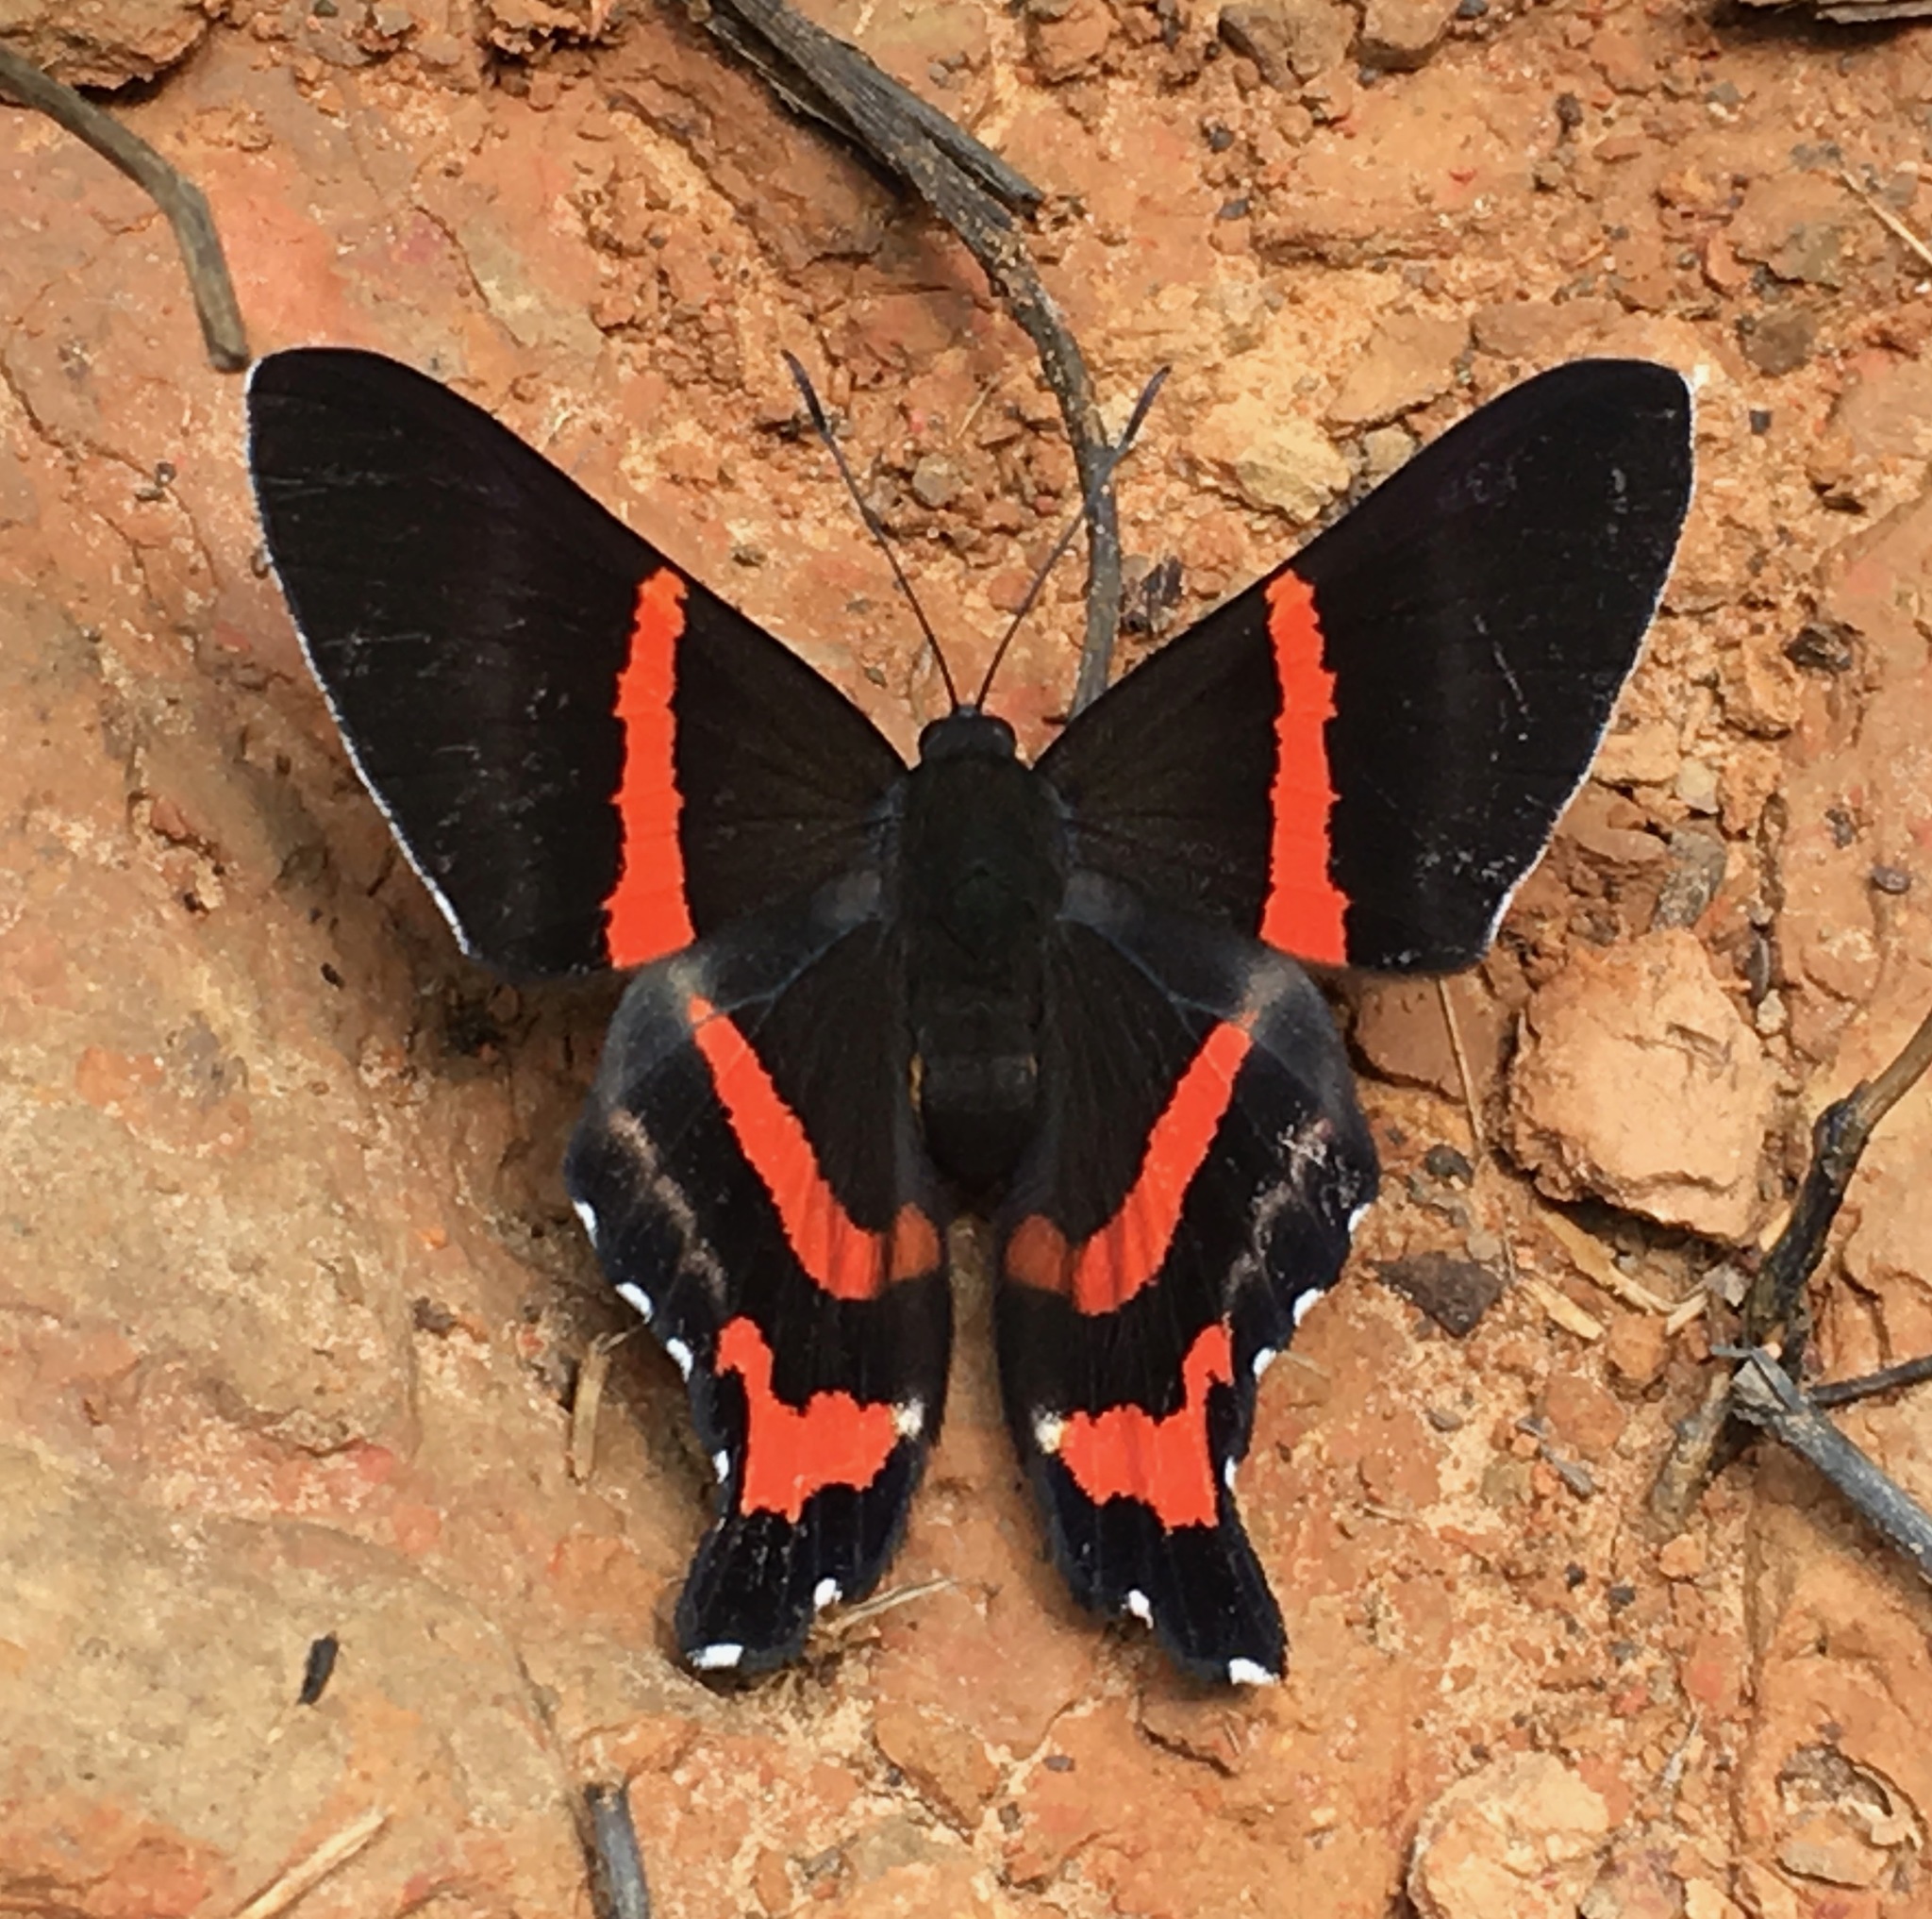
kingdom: Animalia
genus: Ancyluris
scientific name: Ancyluris aulestes
